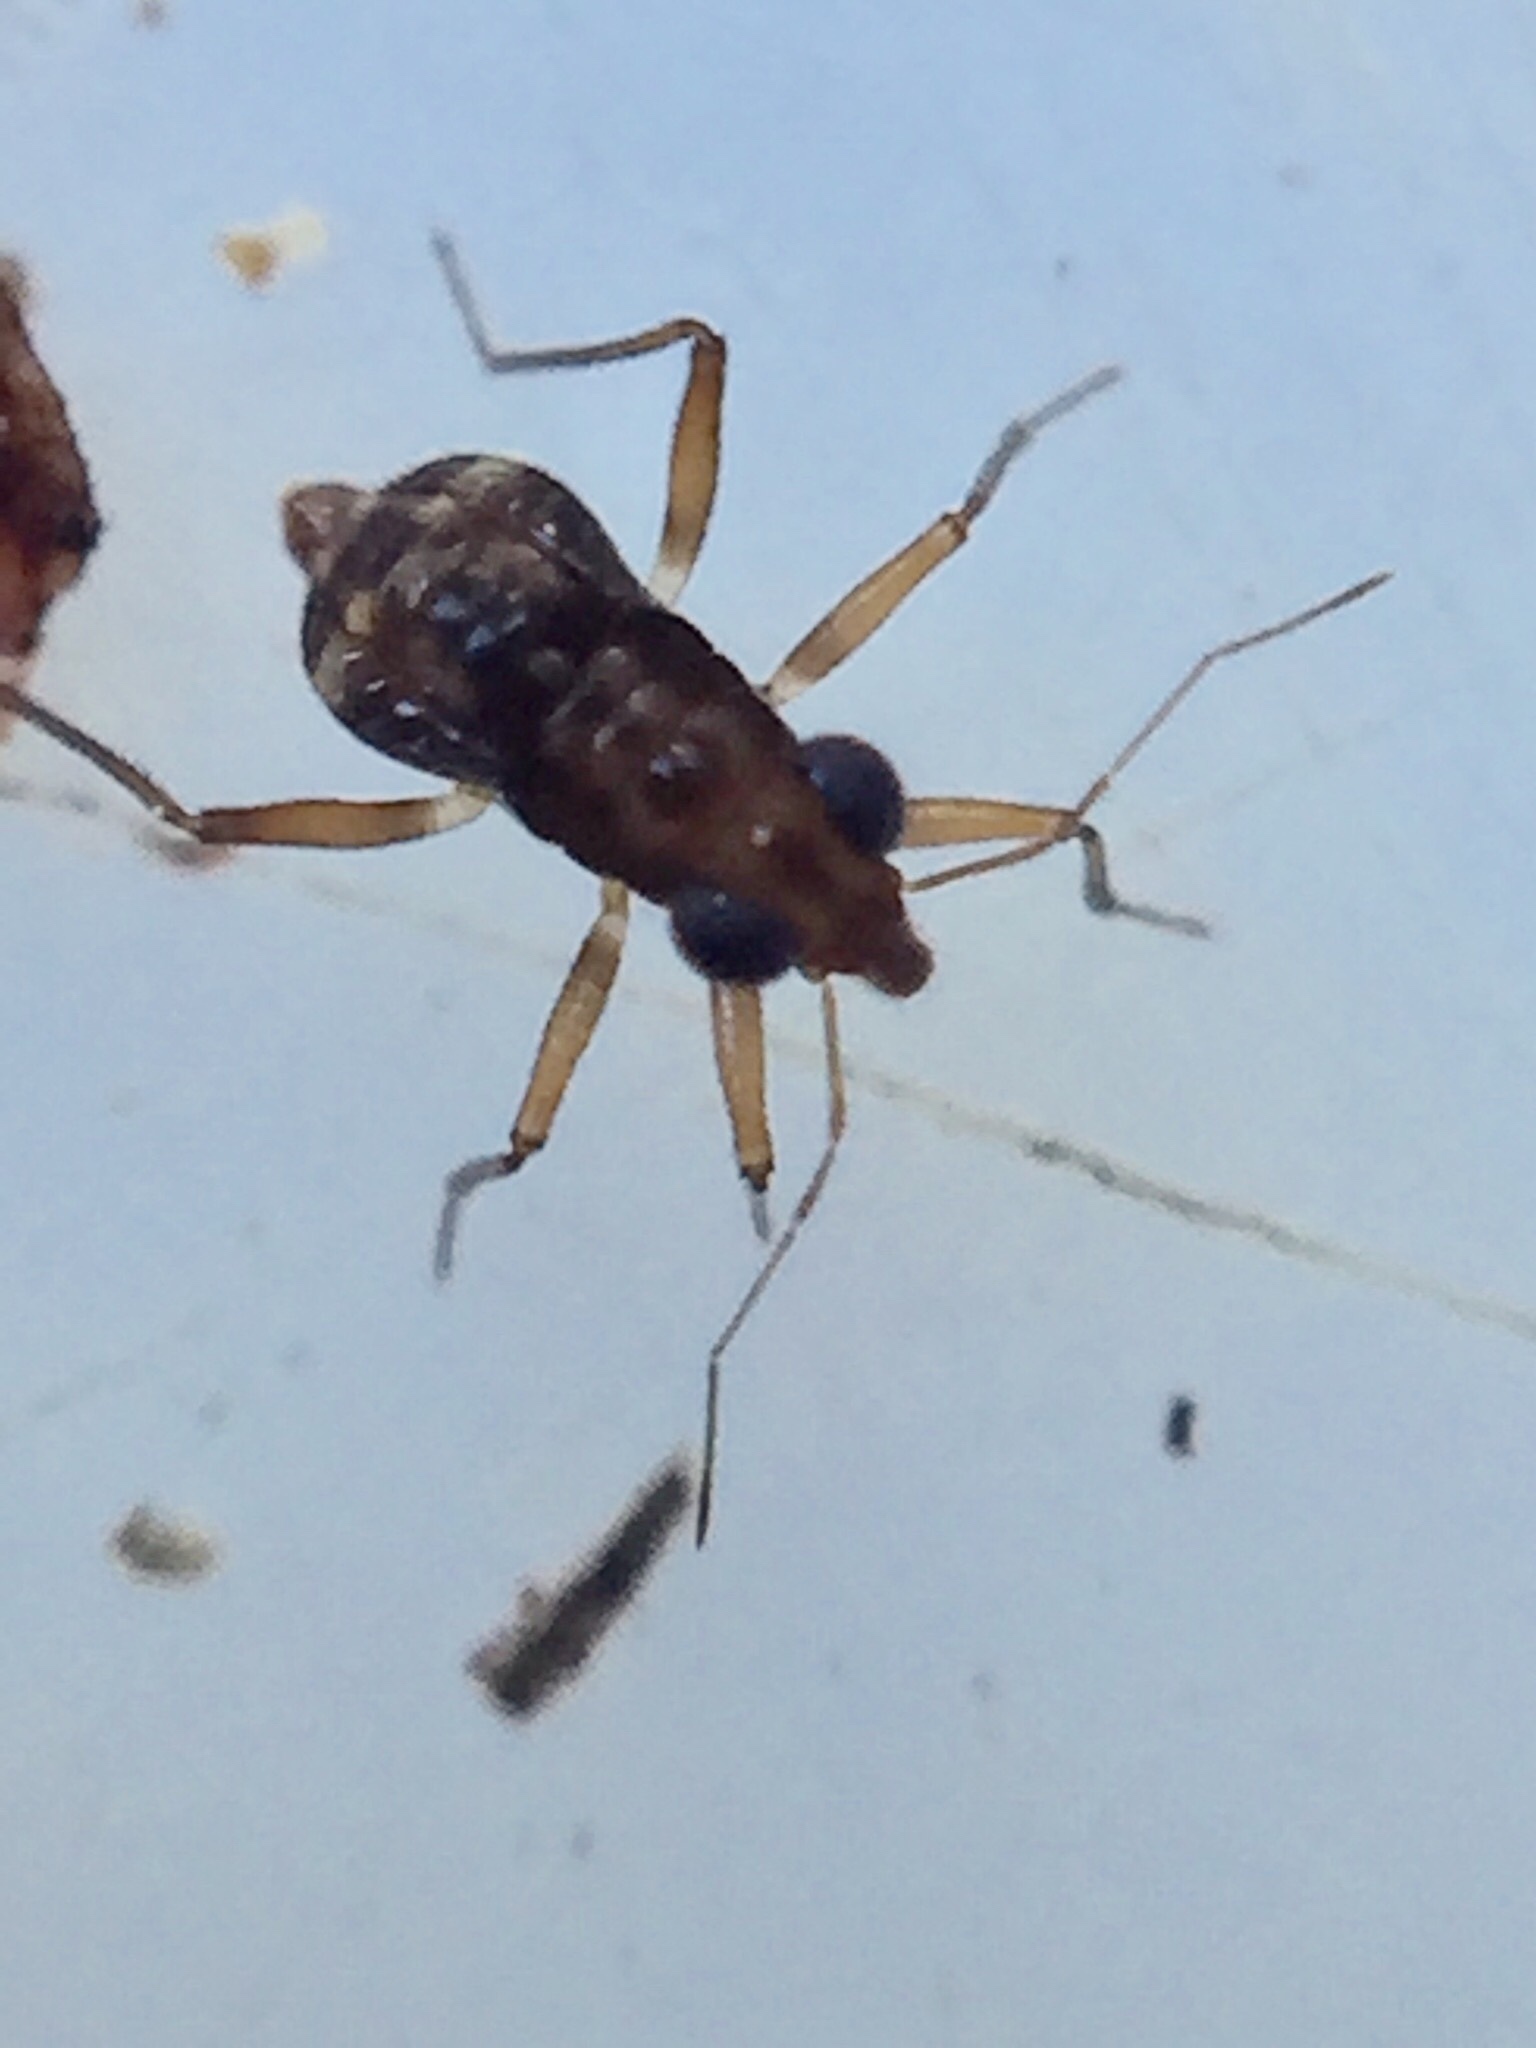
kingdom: Animalia
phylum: Arthropoda
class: Insecta
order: Hemiptera
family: Mesoveliidae
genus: Mniovelia
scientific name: Mniovelia kuscheli
